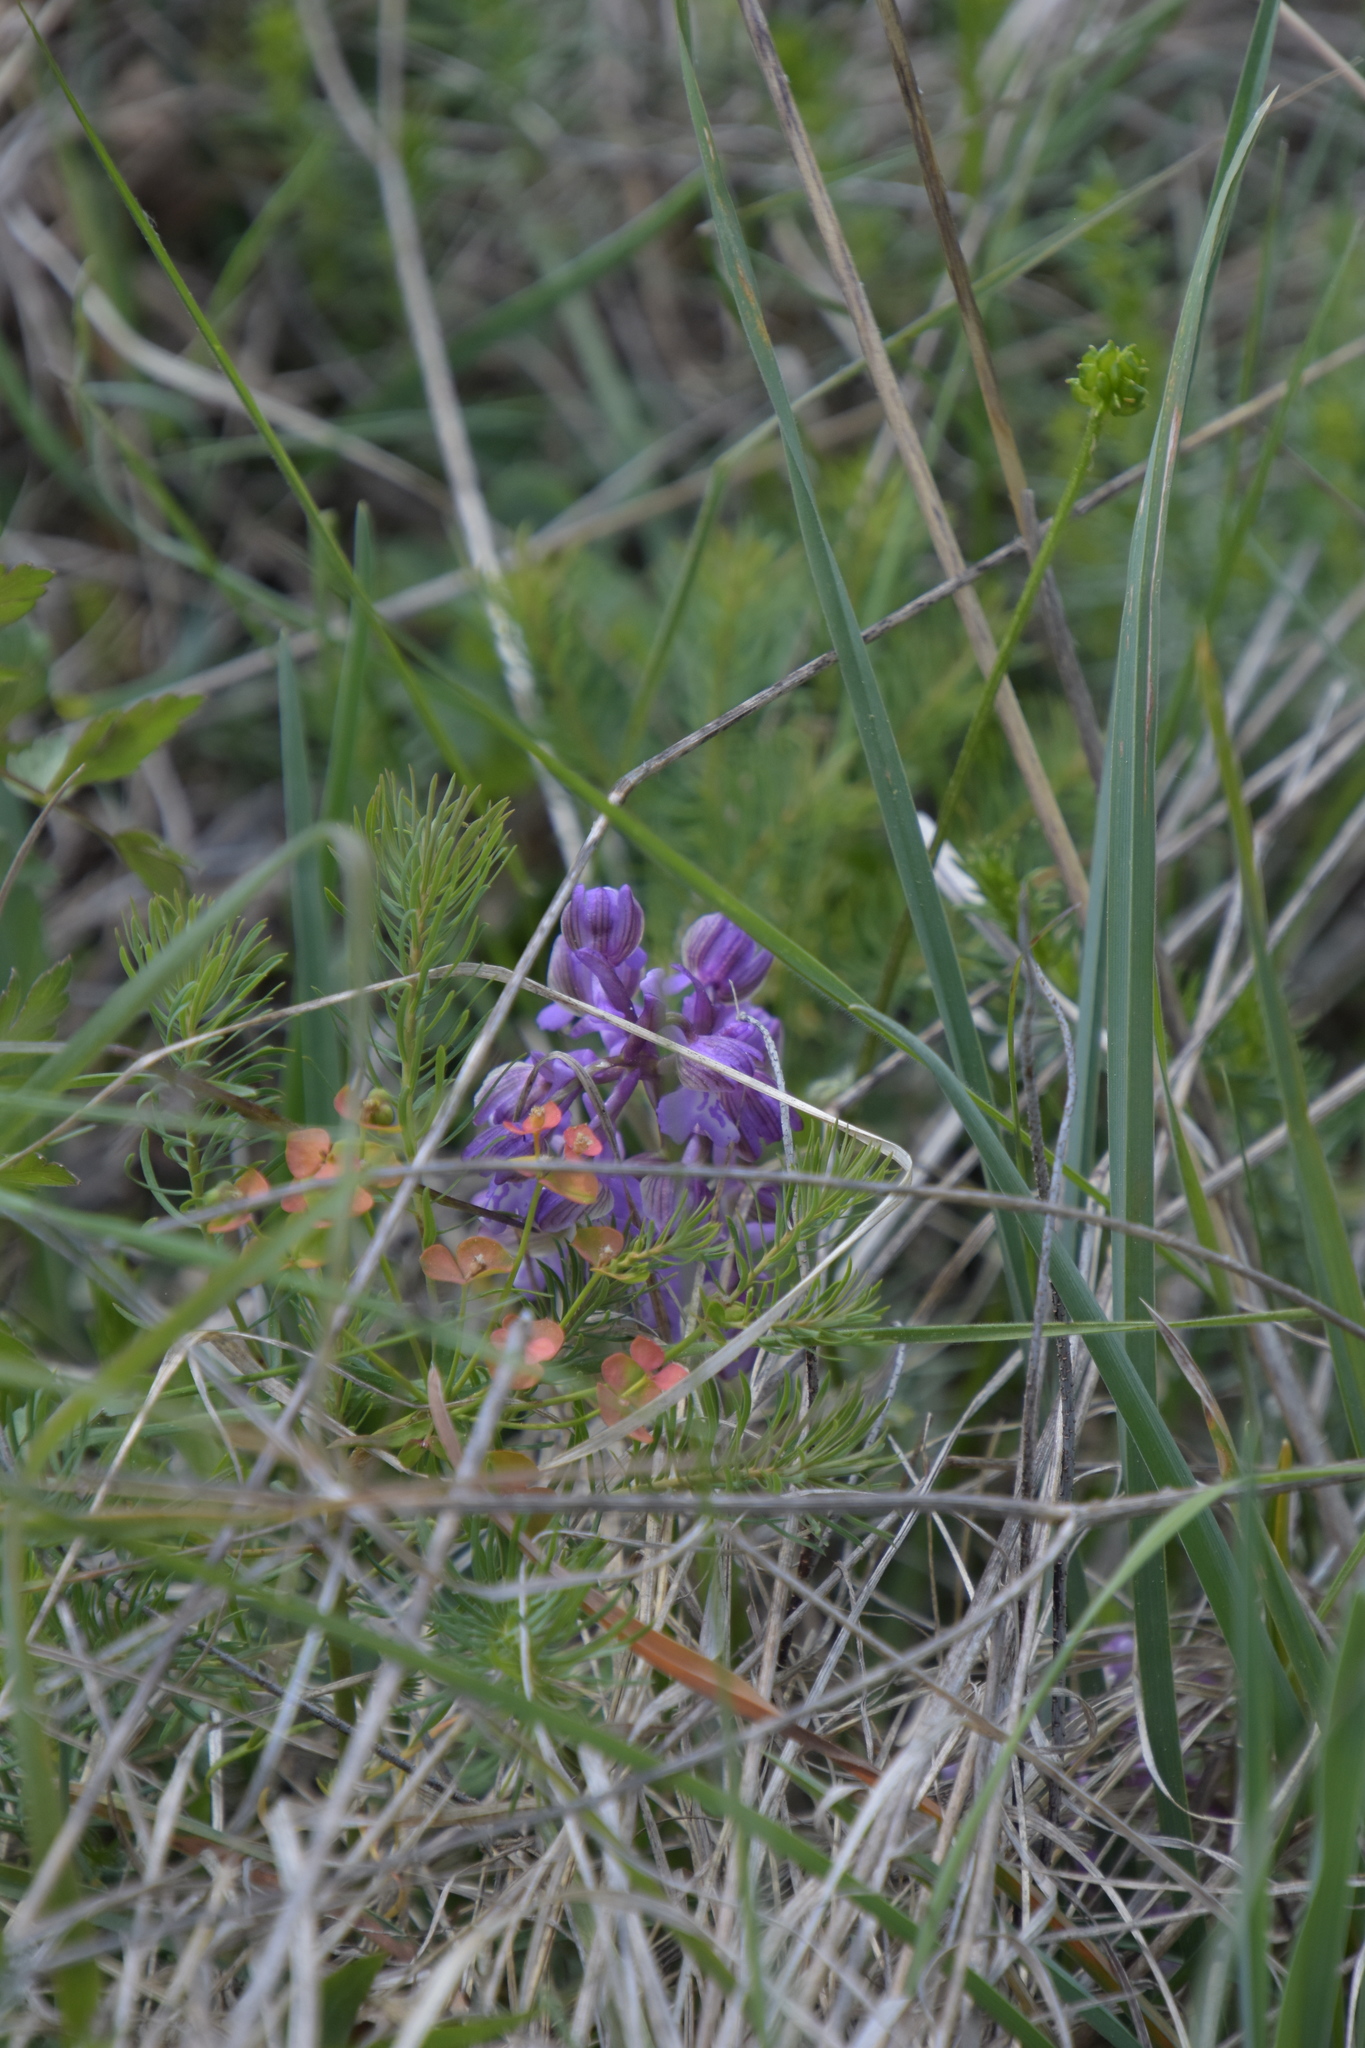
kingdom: Plantae
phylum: Tracheophyta
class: Liliopsida
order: Asparagales
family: Orchidaceae
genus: Anacamptis
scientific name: Anacamptis morio
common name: Green-winged orchid
